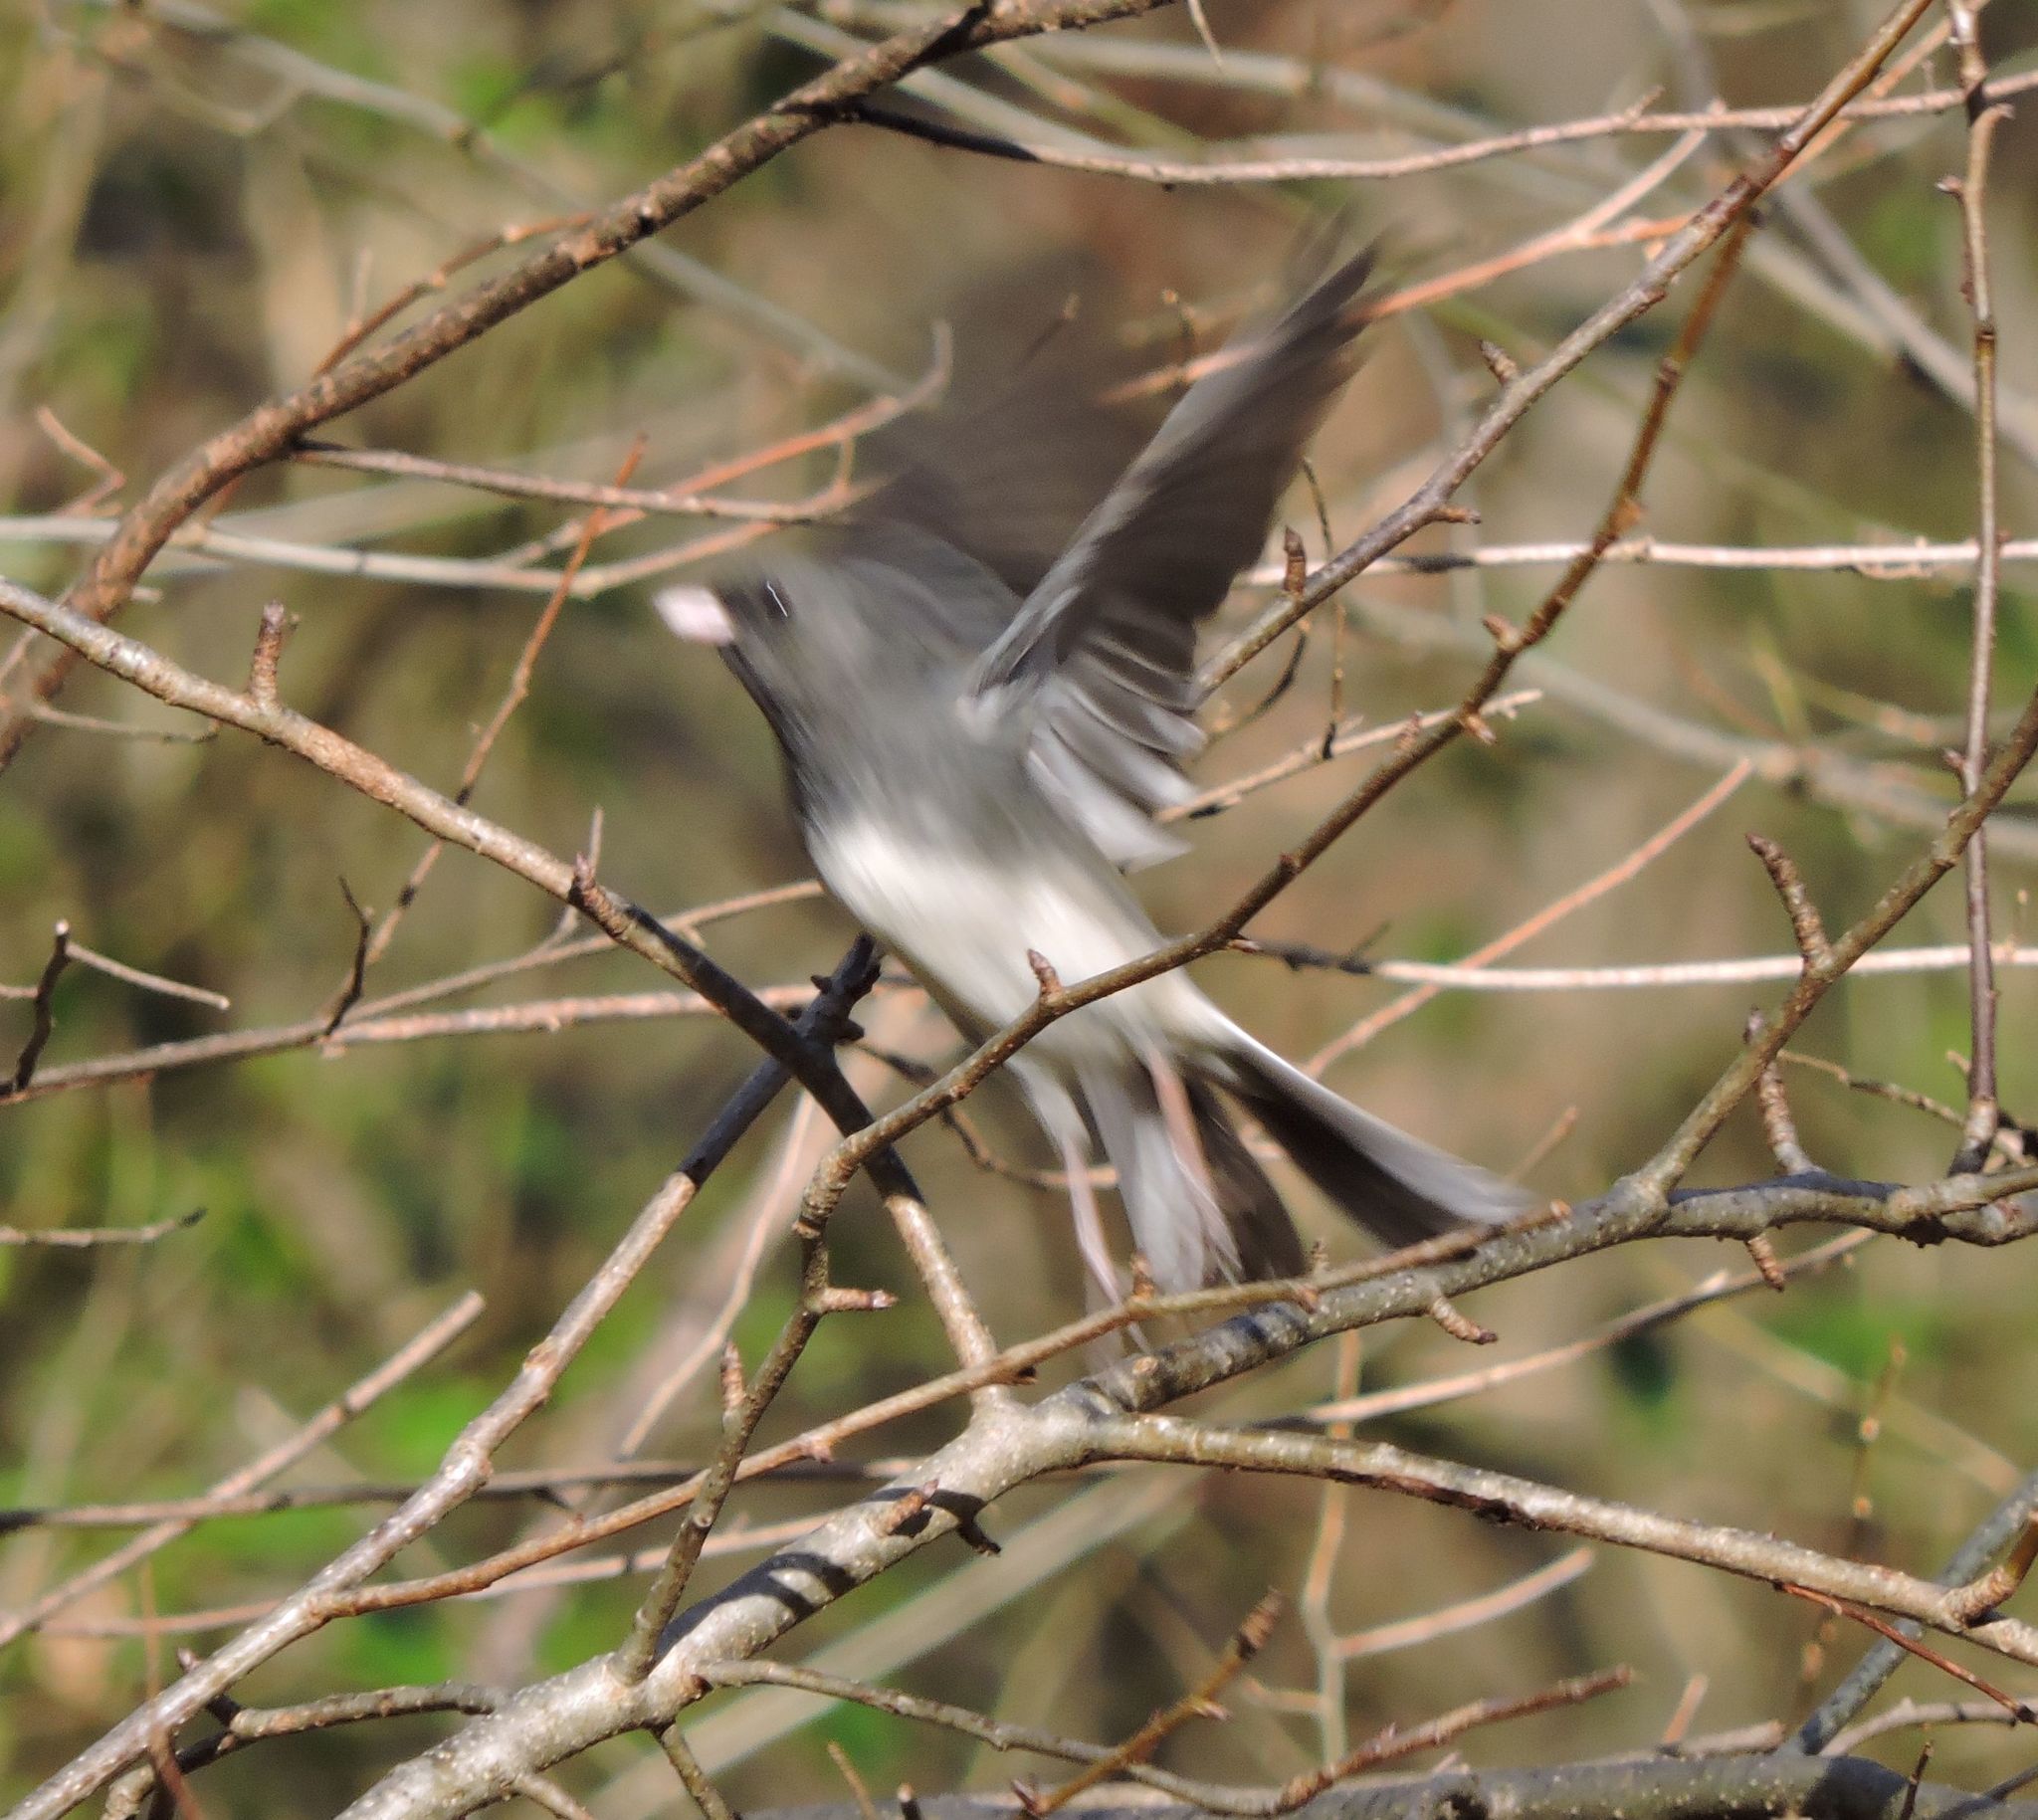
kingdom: Animalia
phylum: Chordata
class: Aves
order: Passeriformes
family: Passerellidae
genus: Junco
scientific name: Junco hyemalis
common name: Dark-eyed junco
